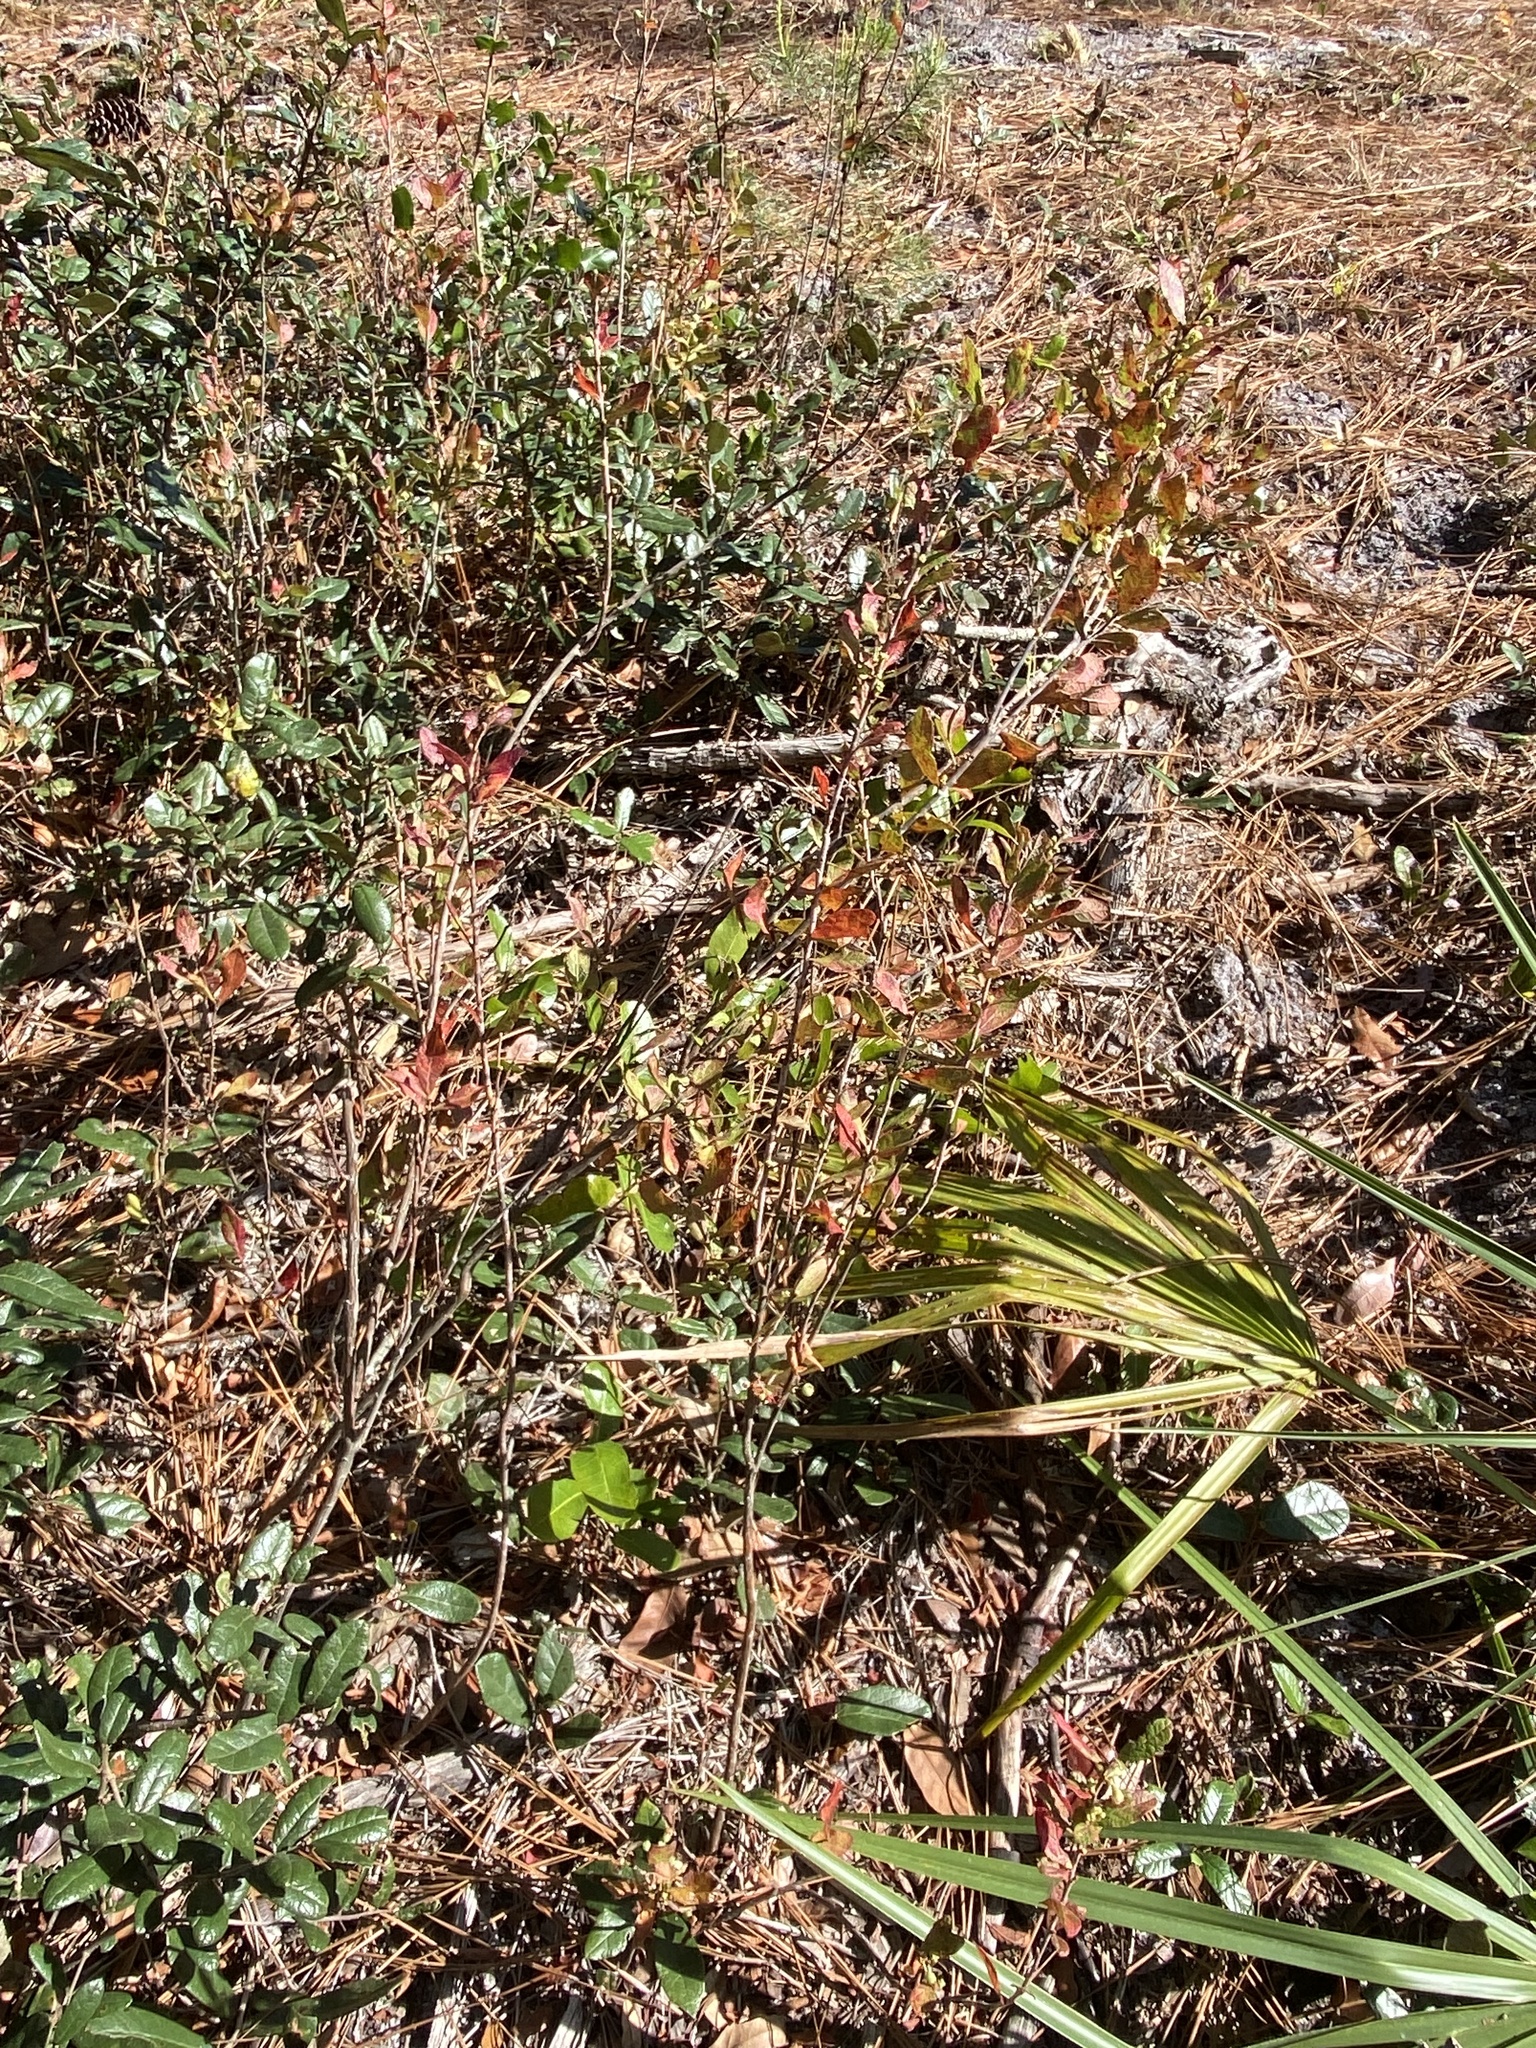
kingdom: Plantae
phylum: Tracheophyta
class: Magnoliopsida
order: Ericales
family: Ericaceae
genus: Gaylussacia
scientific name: Gaylussacia nana
